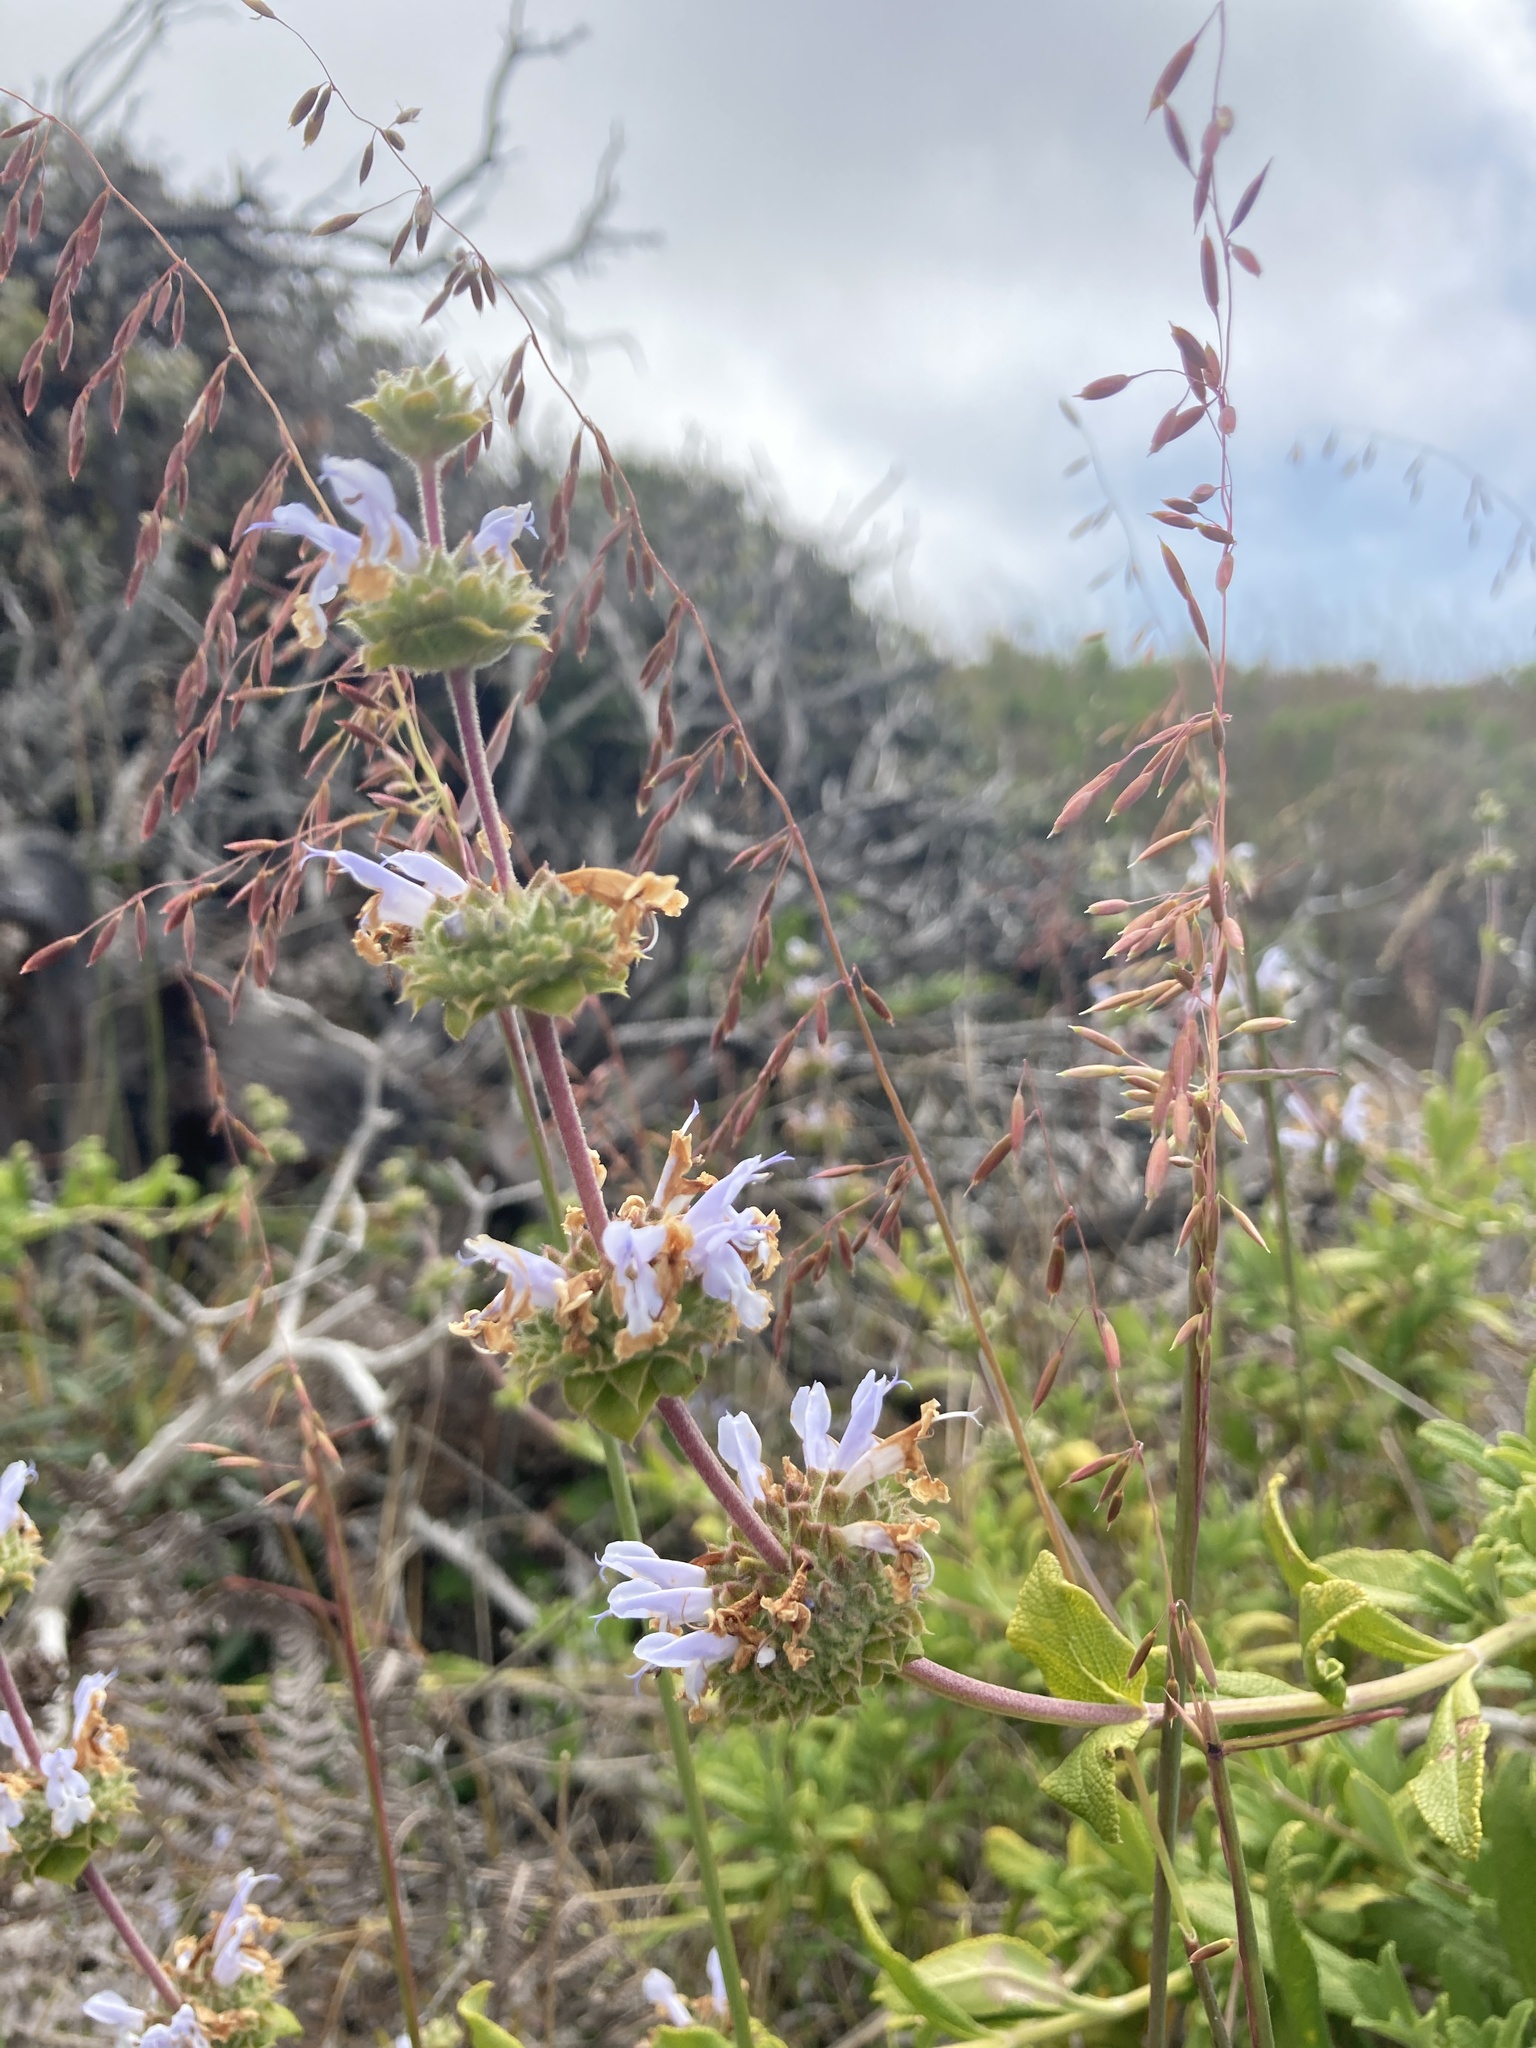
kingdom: Plantae
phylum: Tracheophyta
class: Magnoliopsida
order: Lamiales
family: Lamiaceae
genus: Salvia
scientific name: Salvia mellifera
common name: Black sage
